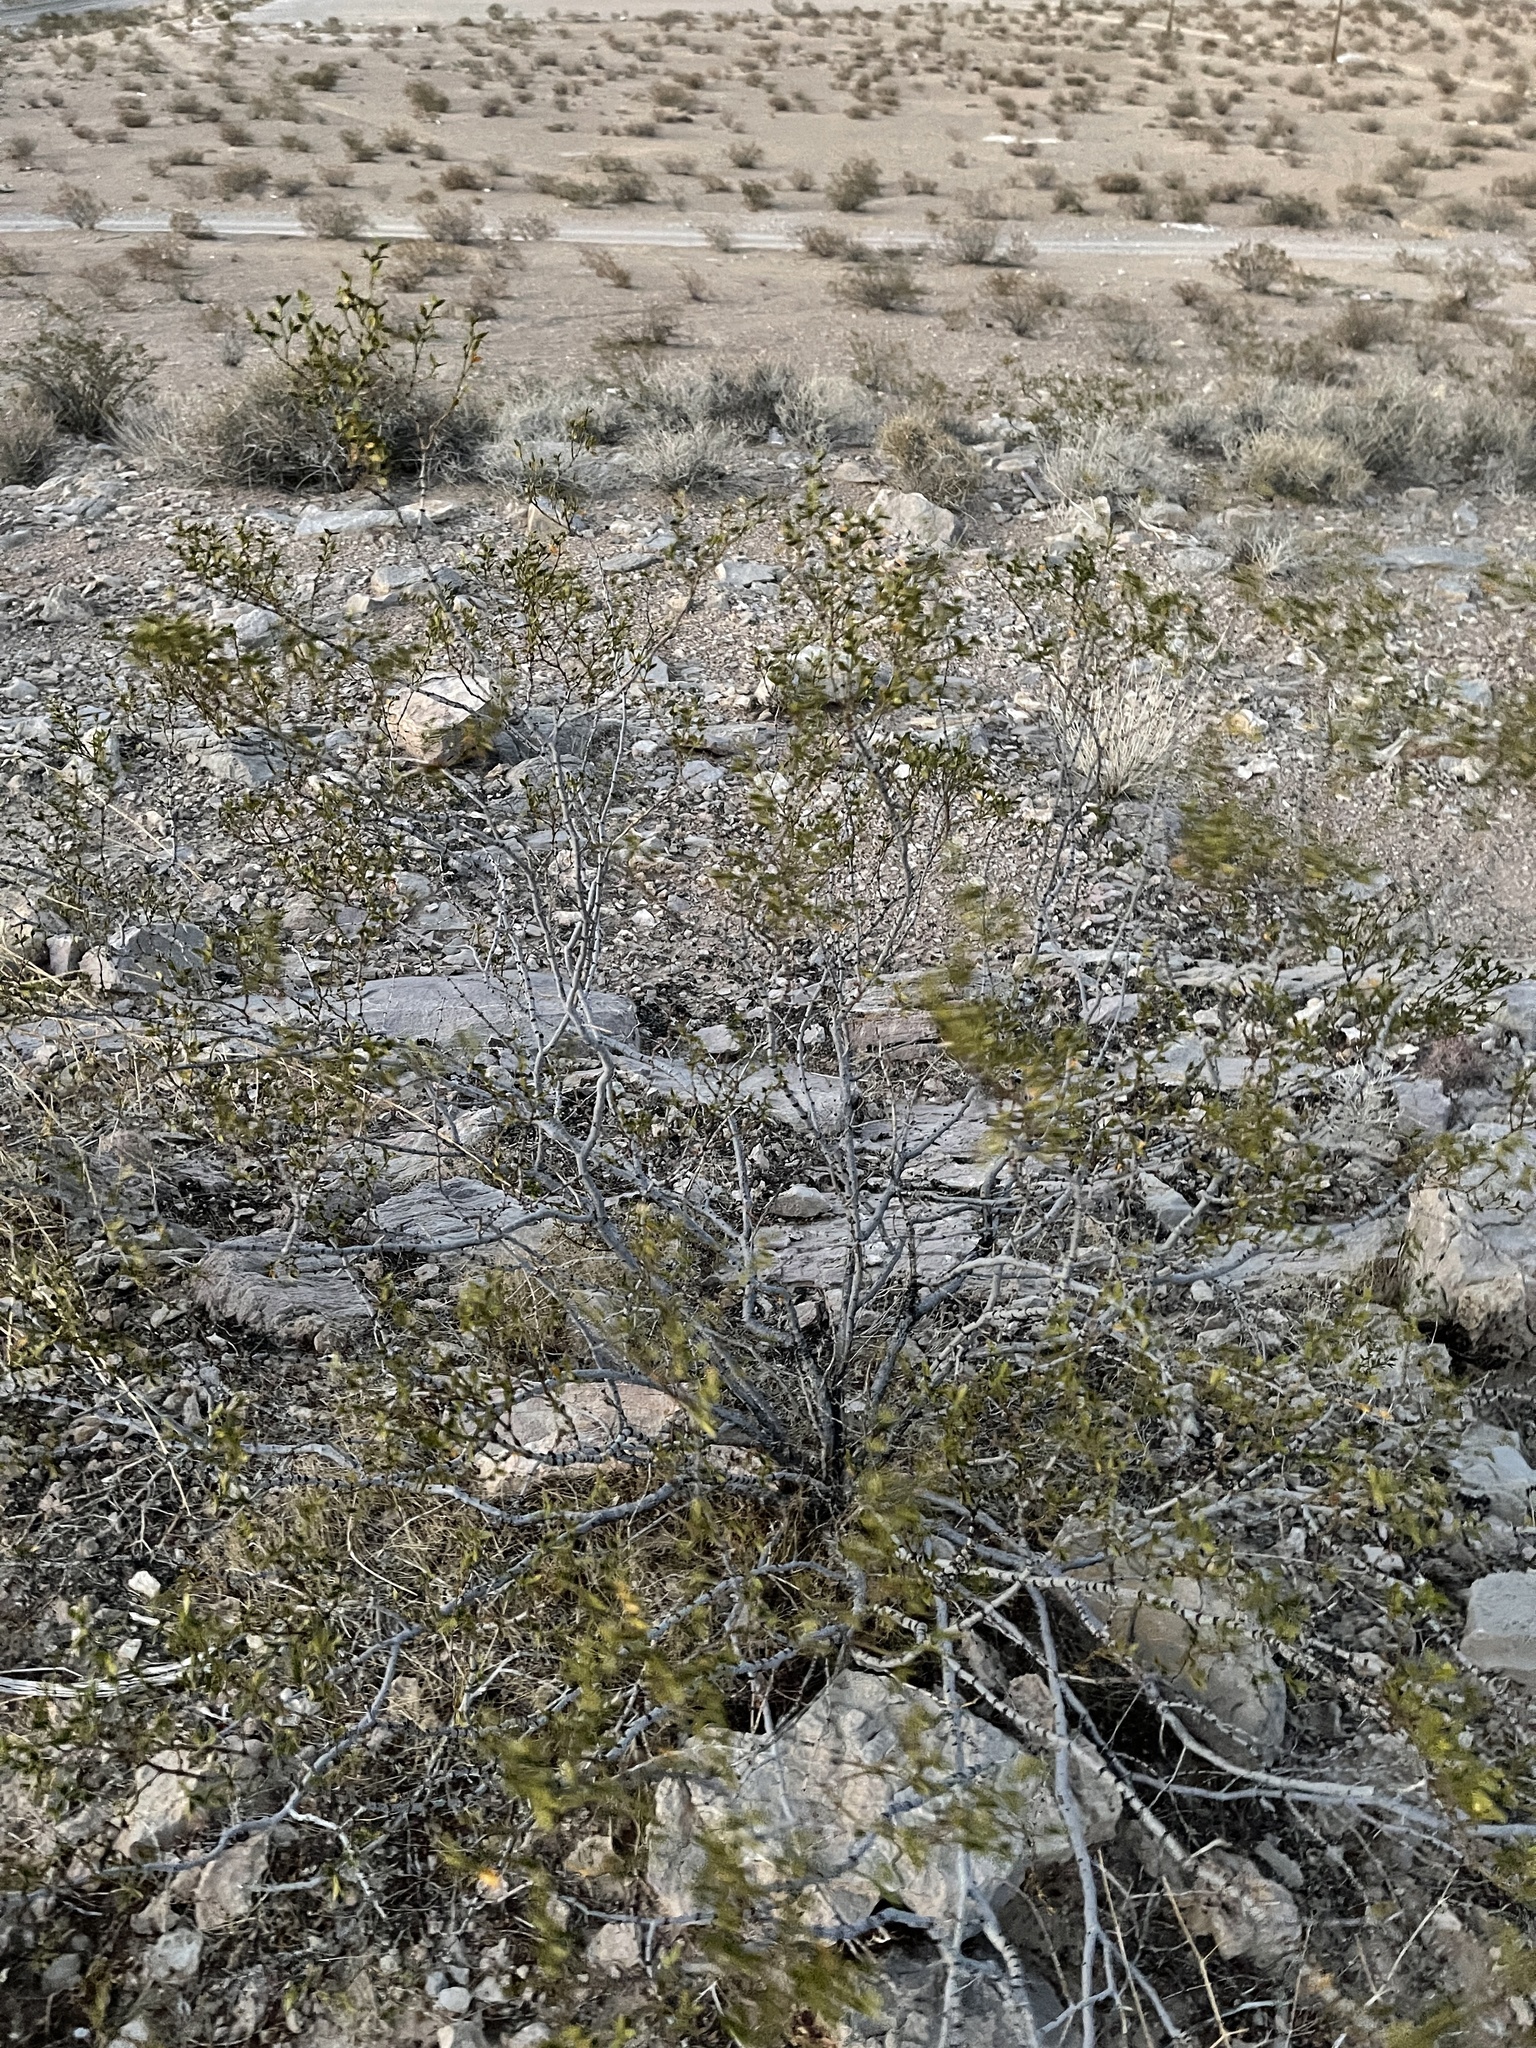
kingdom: Plantae
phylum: Tracheophyta
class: Magnoliopsida
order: Zygophyllales
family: Zygophyllaceae
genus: Larrea
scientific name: Larrea tridentata
